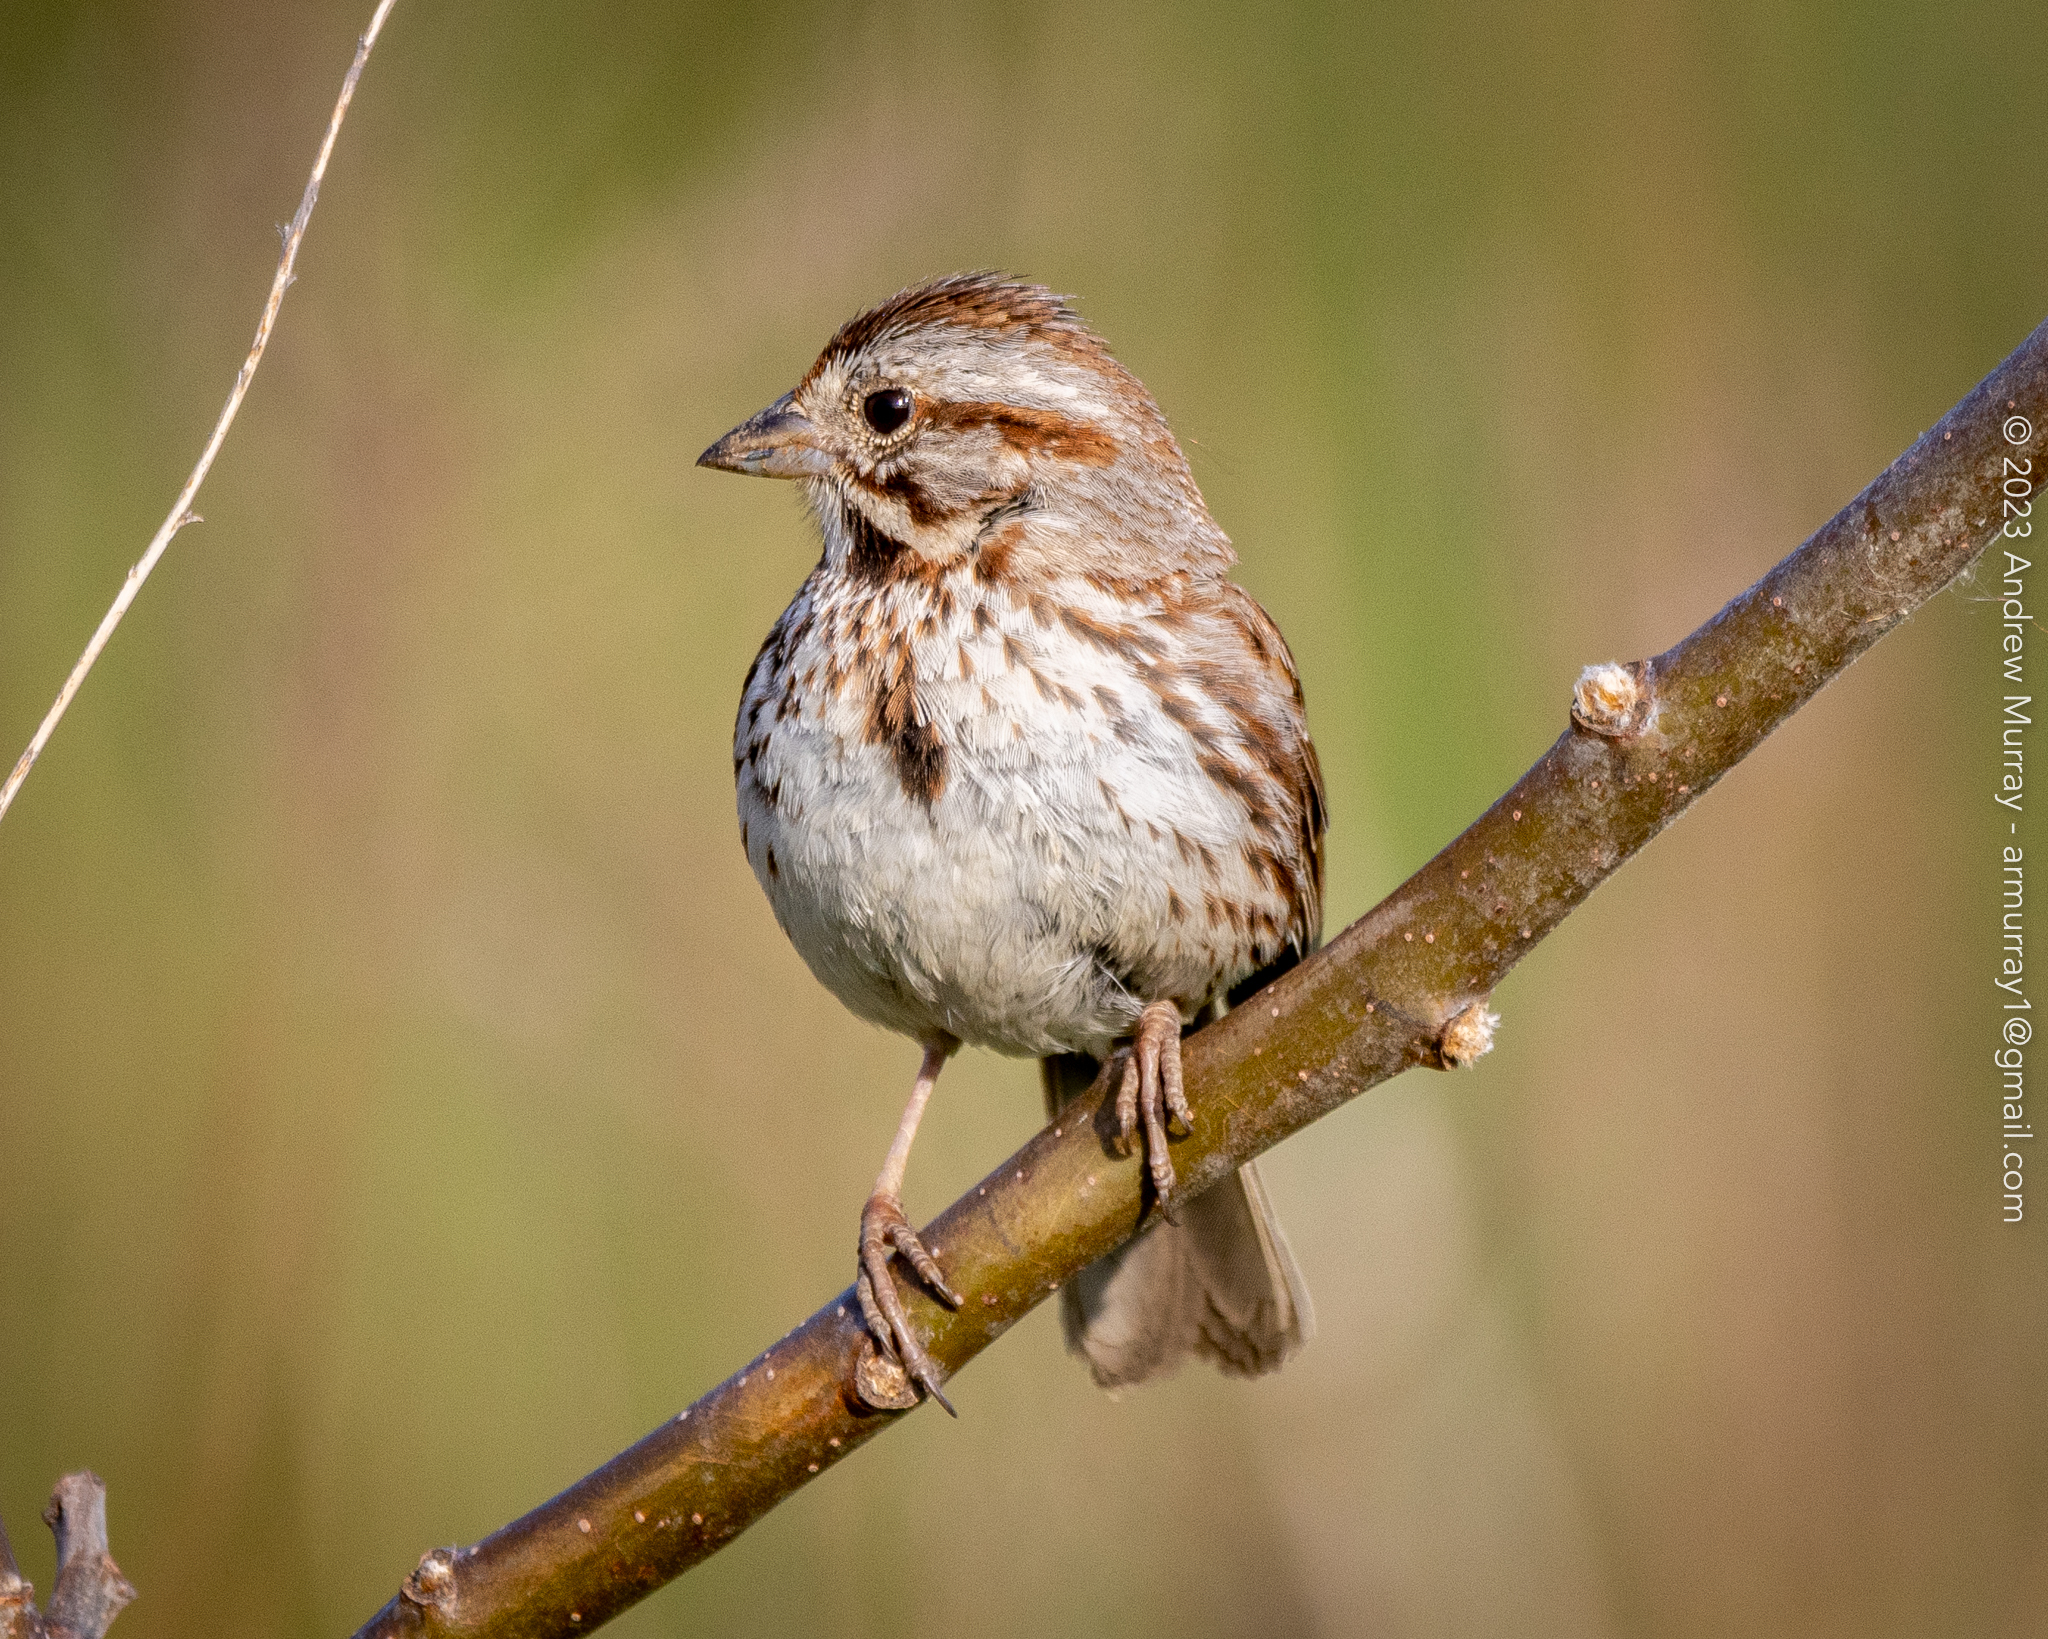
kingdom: Animalia
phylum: Chordata
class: Aves
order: Passeriformes
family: Passerellidae
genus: Melospiza
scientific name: Melospiza melodia
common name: Song sparrow
